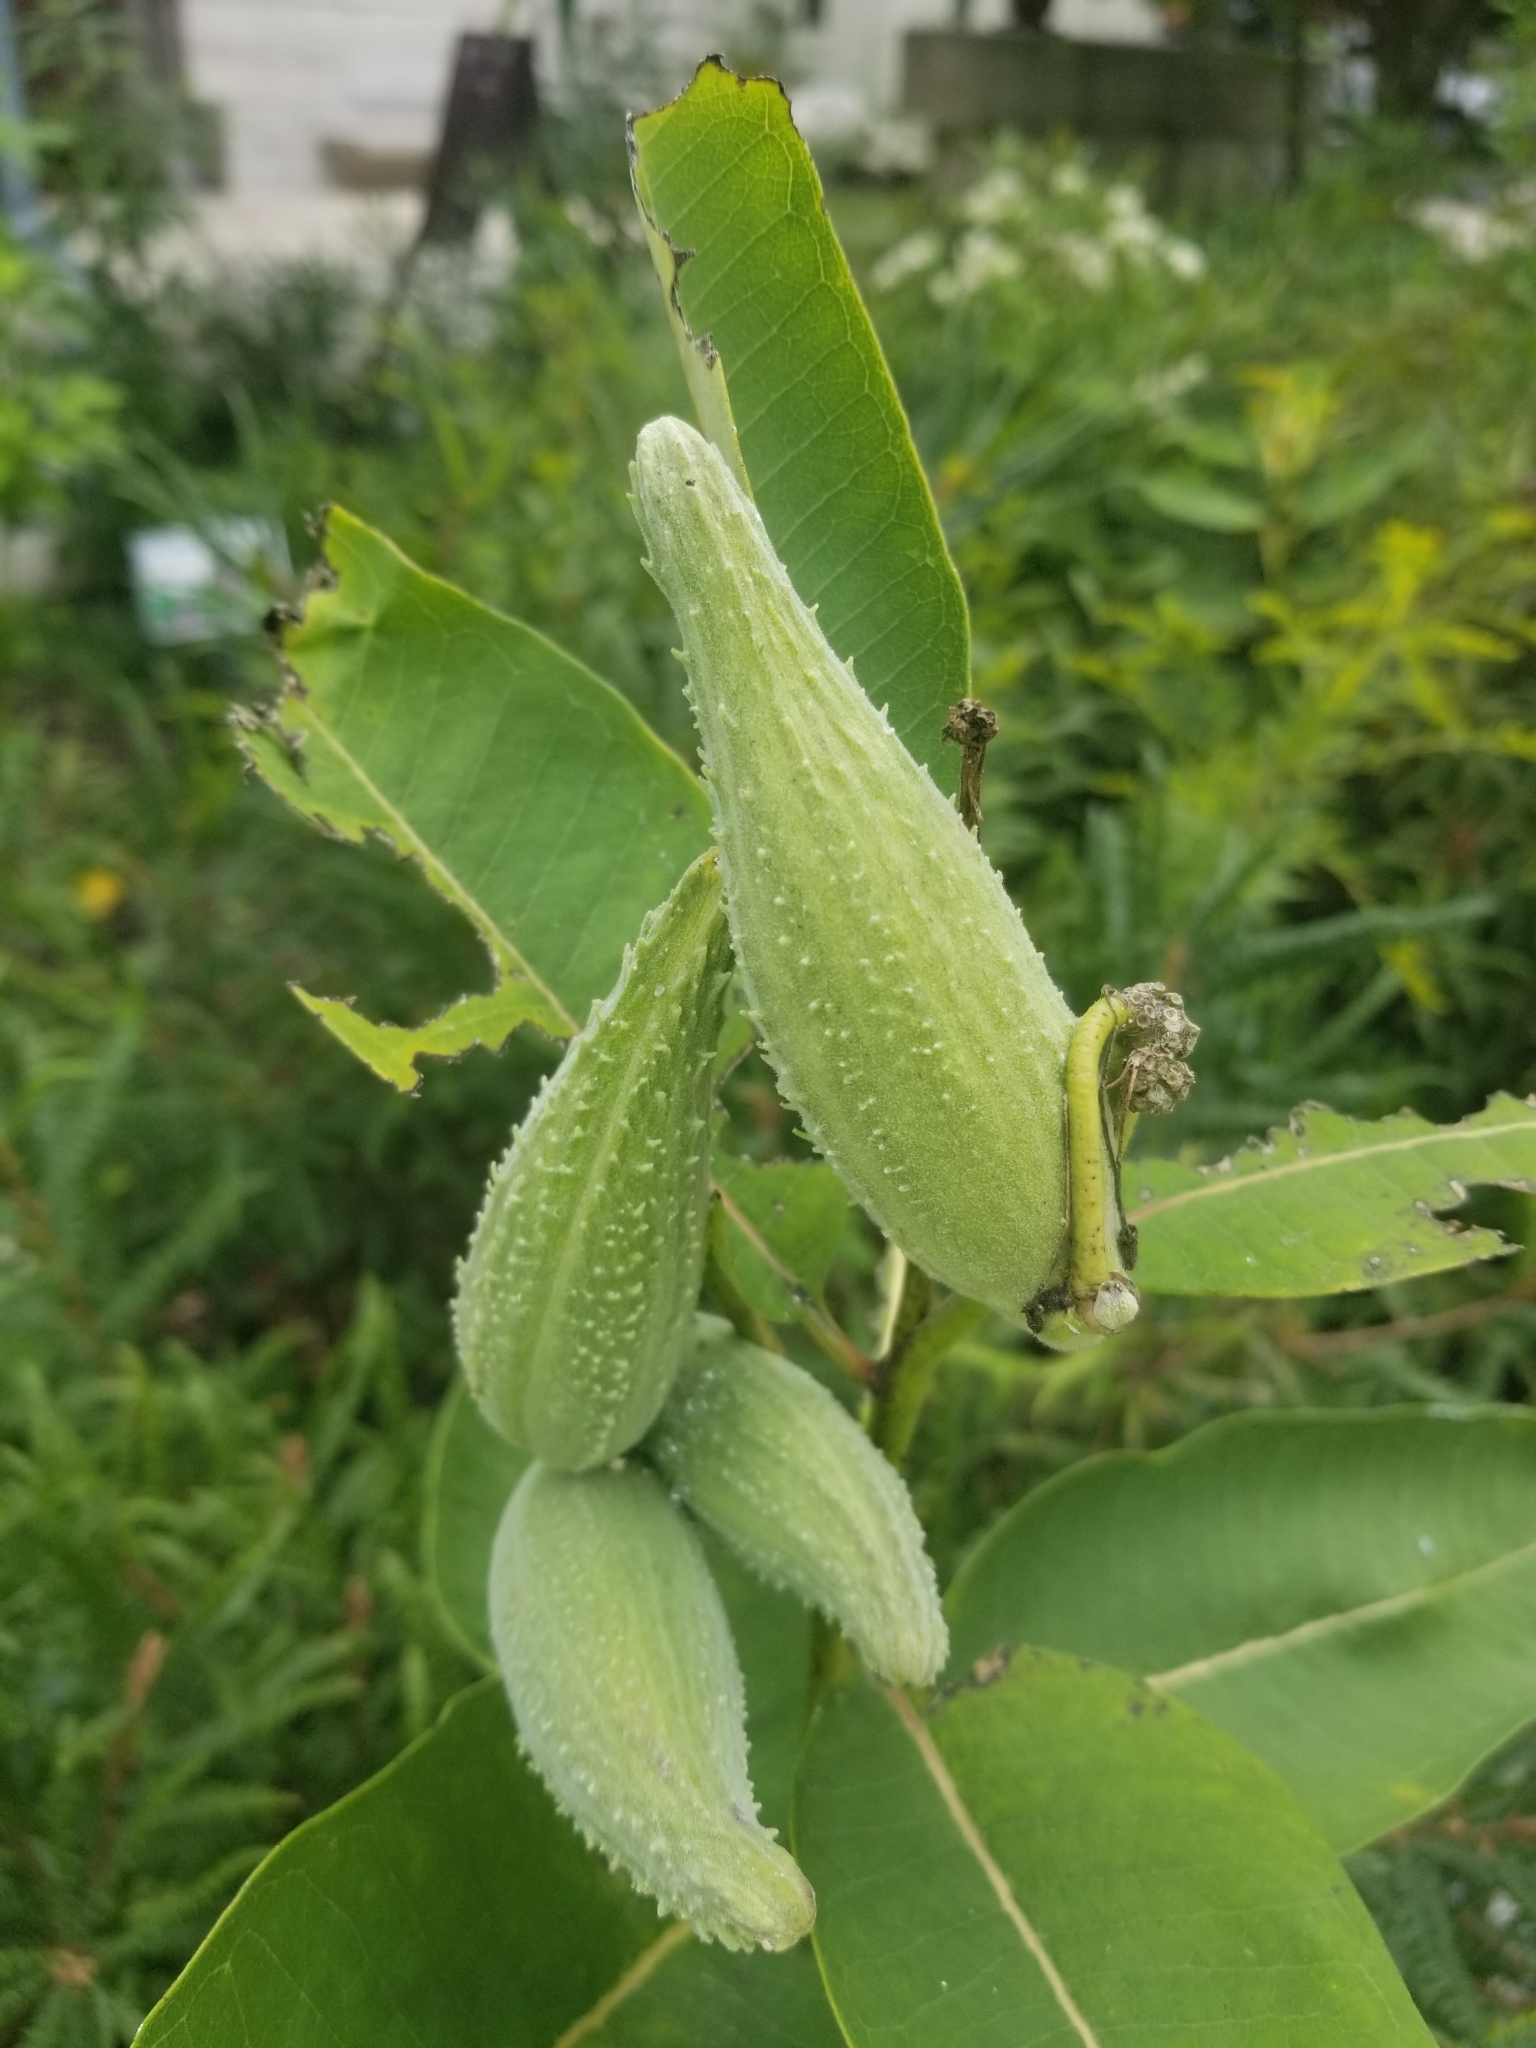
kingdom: Plantae
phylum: Tracheophyta
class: Magnoliopsida
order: Gentianales
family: Apocynaceae
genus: Asclepias
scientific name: Asclepias syriaca
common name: Common milkweed
